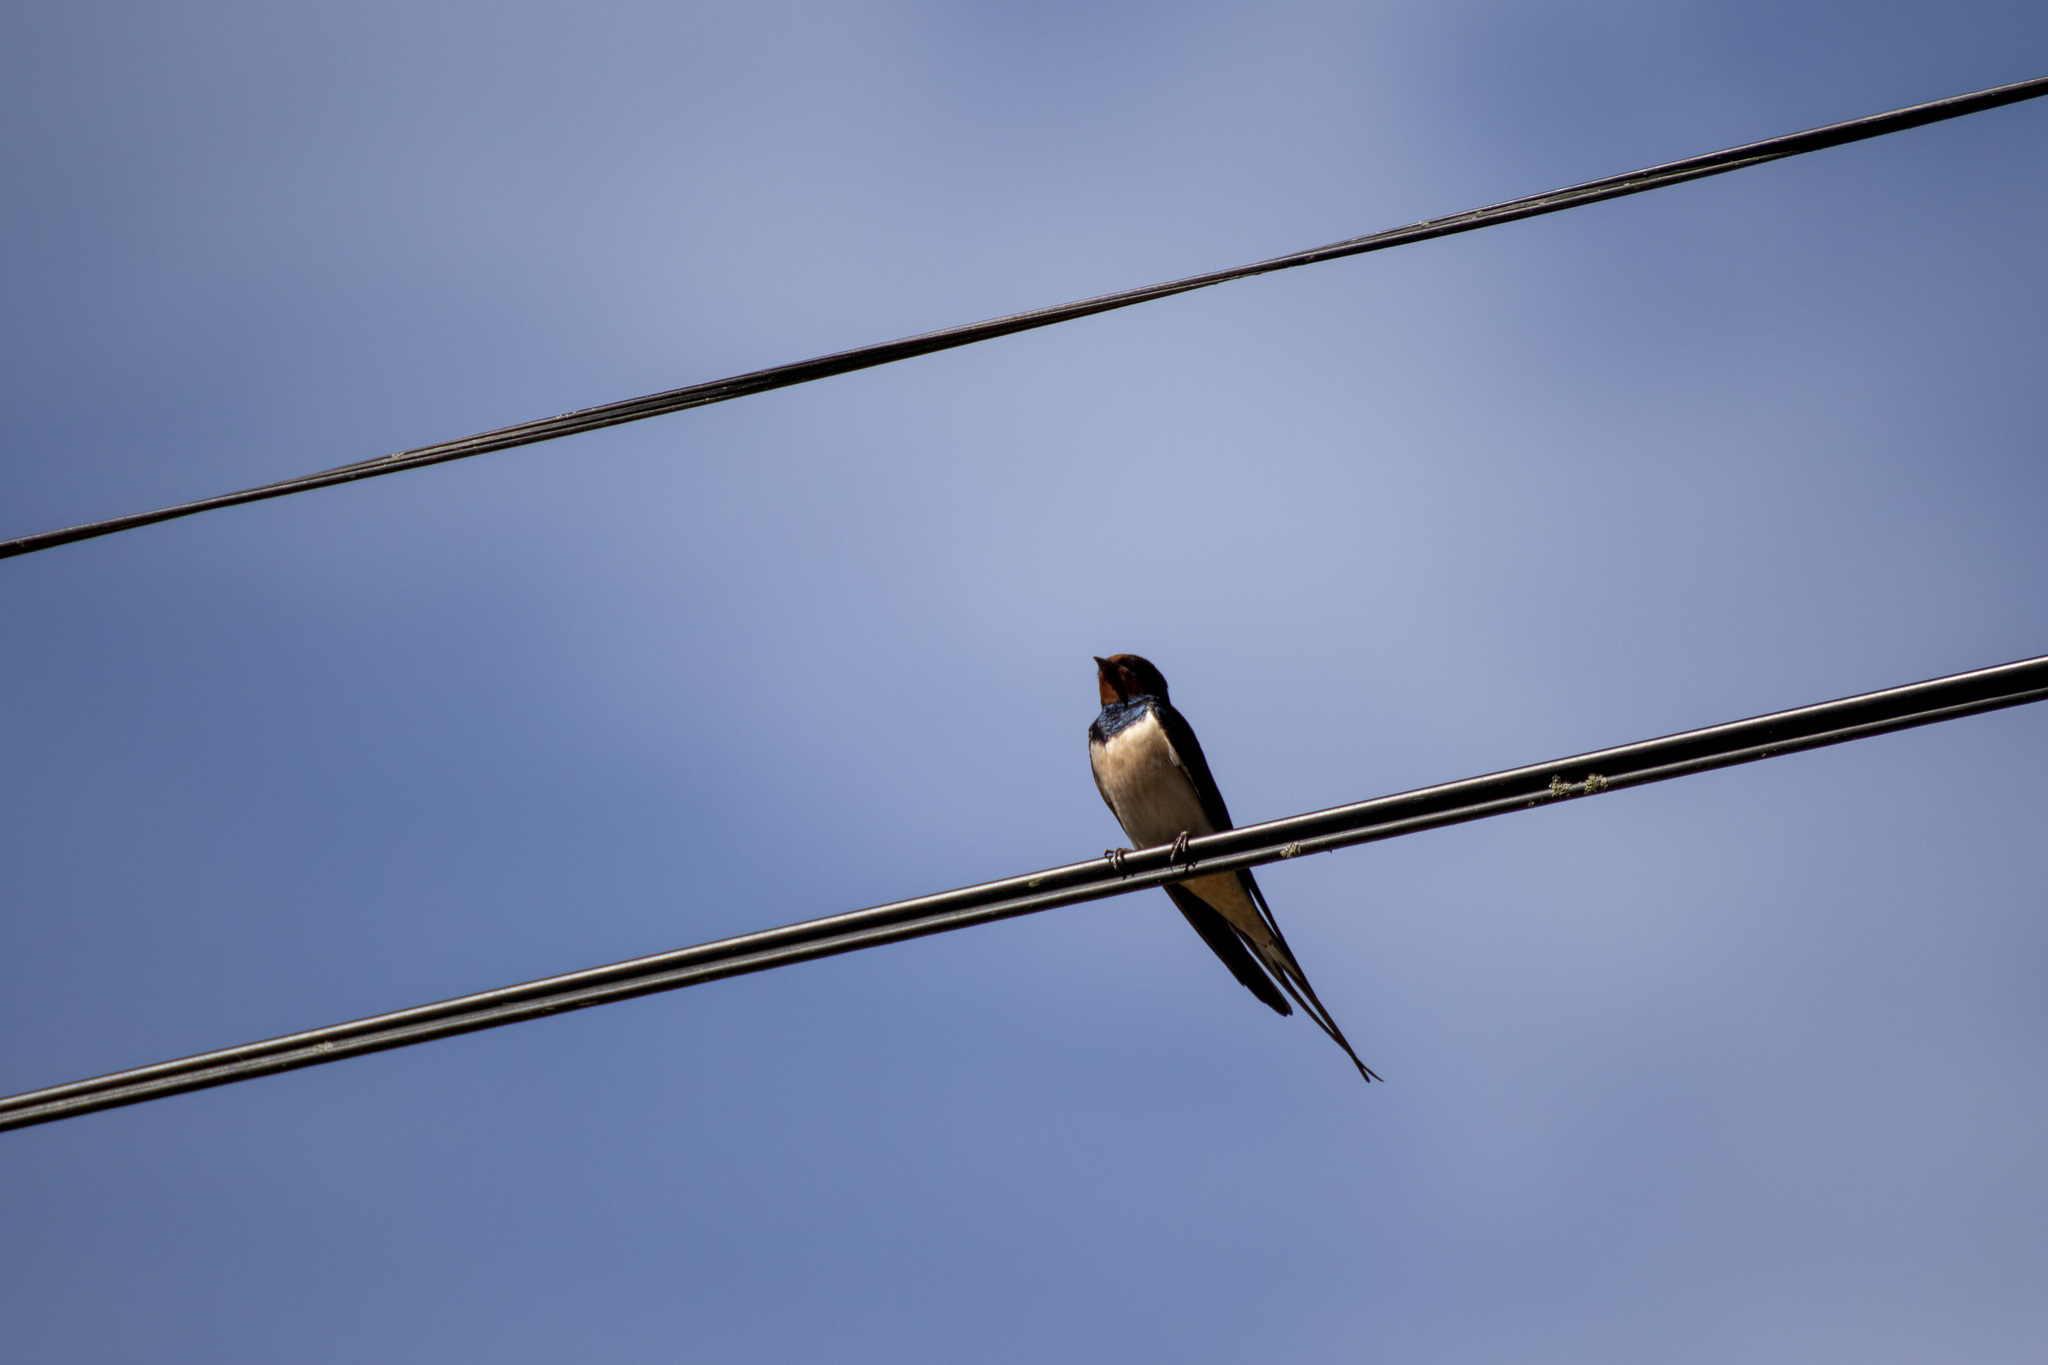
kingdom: Animalia
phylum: Chordata
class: Aves
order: Passeriformes
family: Hirundinidae
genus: Hirundo
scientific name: Hirundo rustica
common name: Barn swallow
